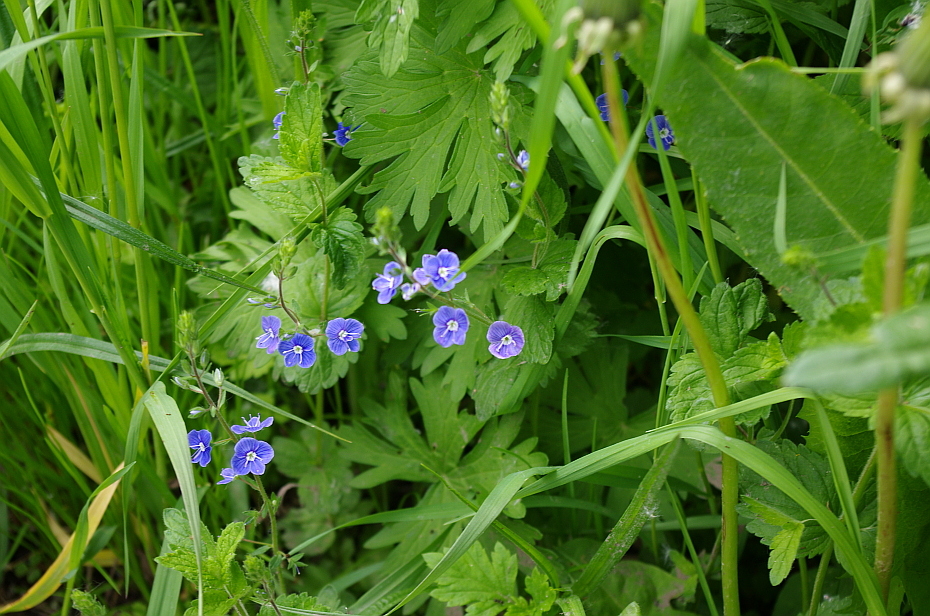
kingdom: Plantae
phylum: Tracheophyta
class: Magnoliopsida
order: Lamiales
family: Plantaginaceae
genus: Veronica
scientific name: Veronica chamaedrys
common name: Germander speedwell
